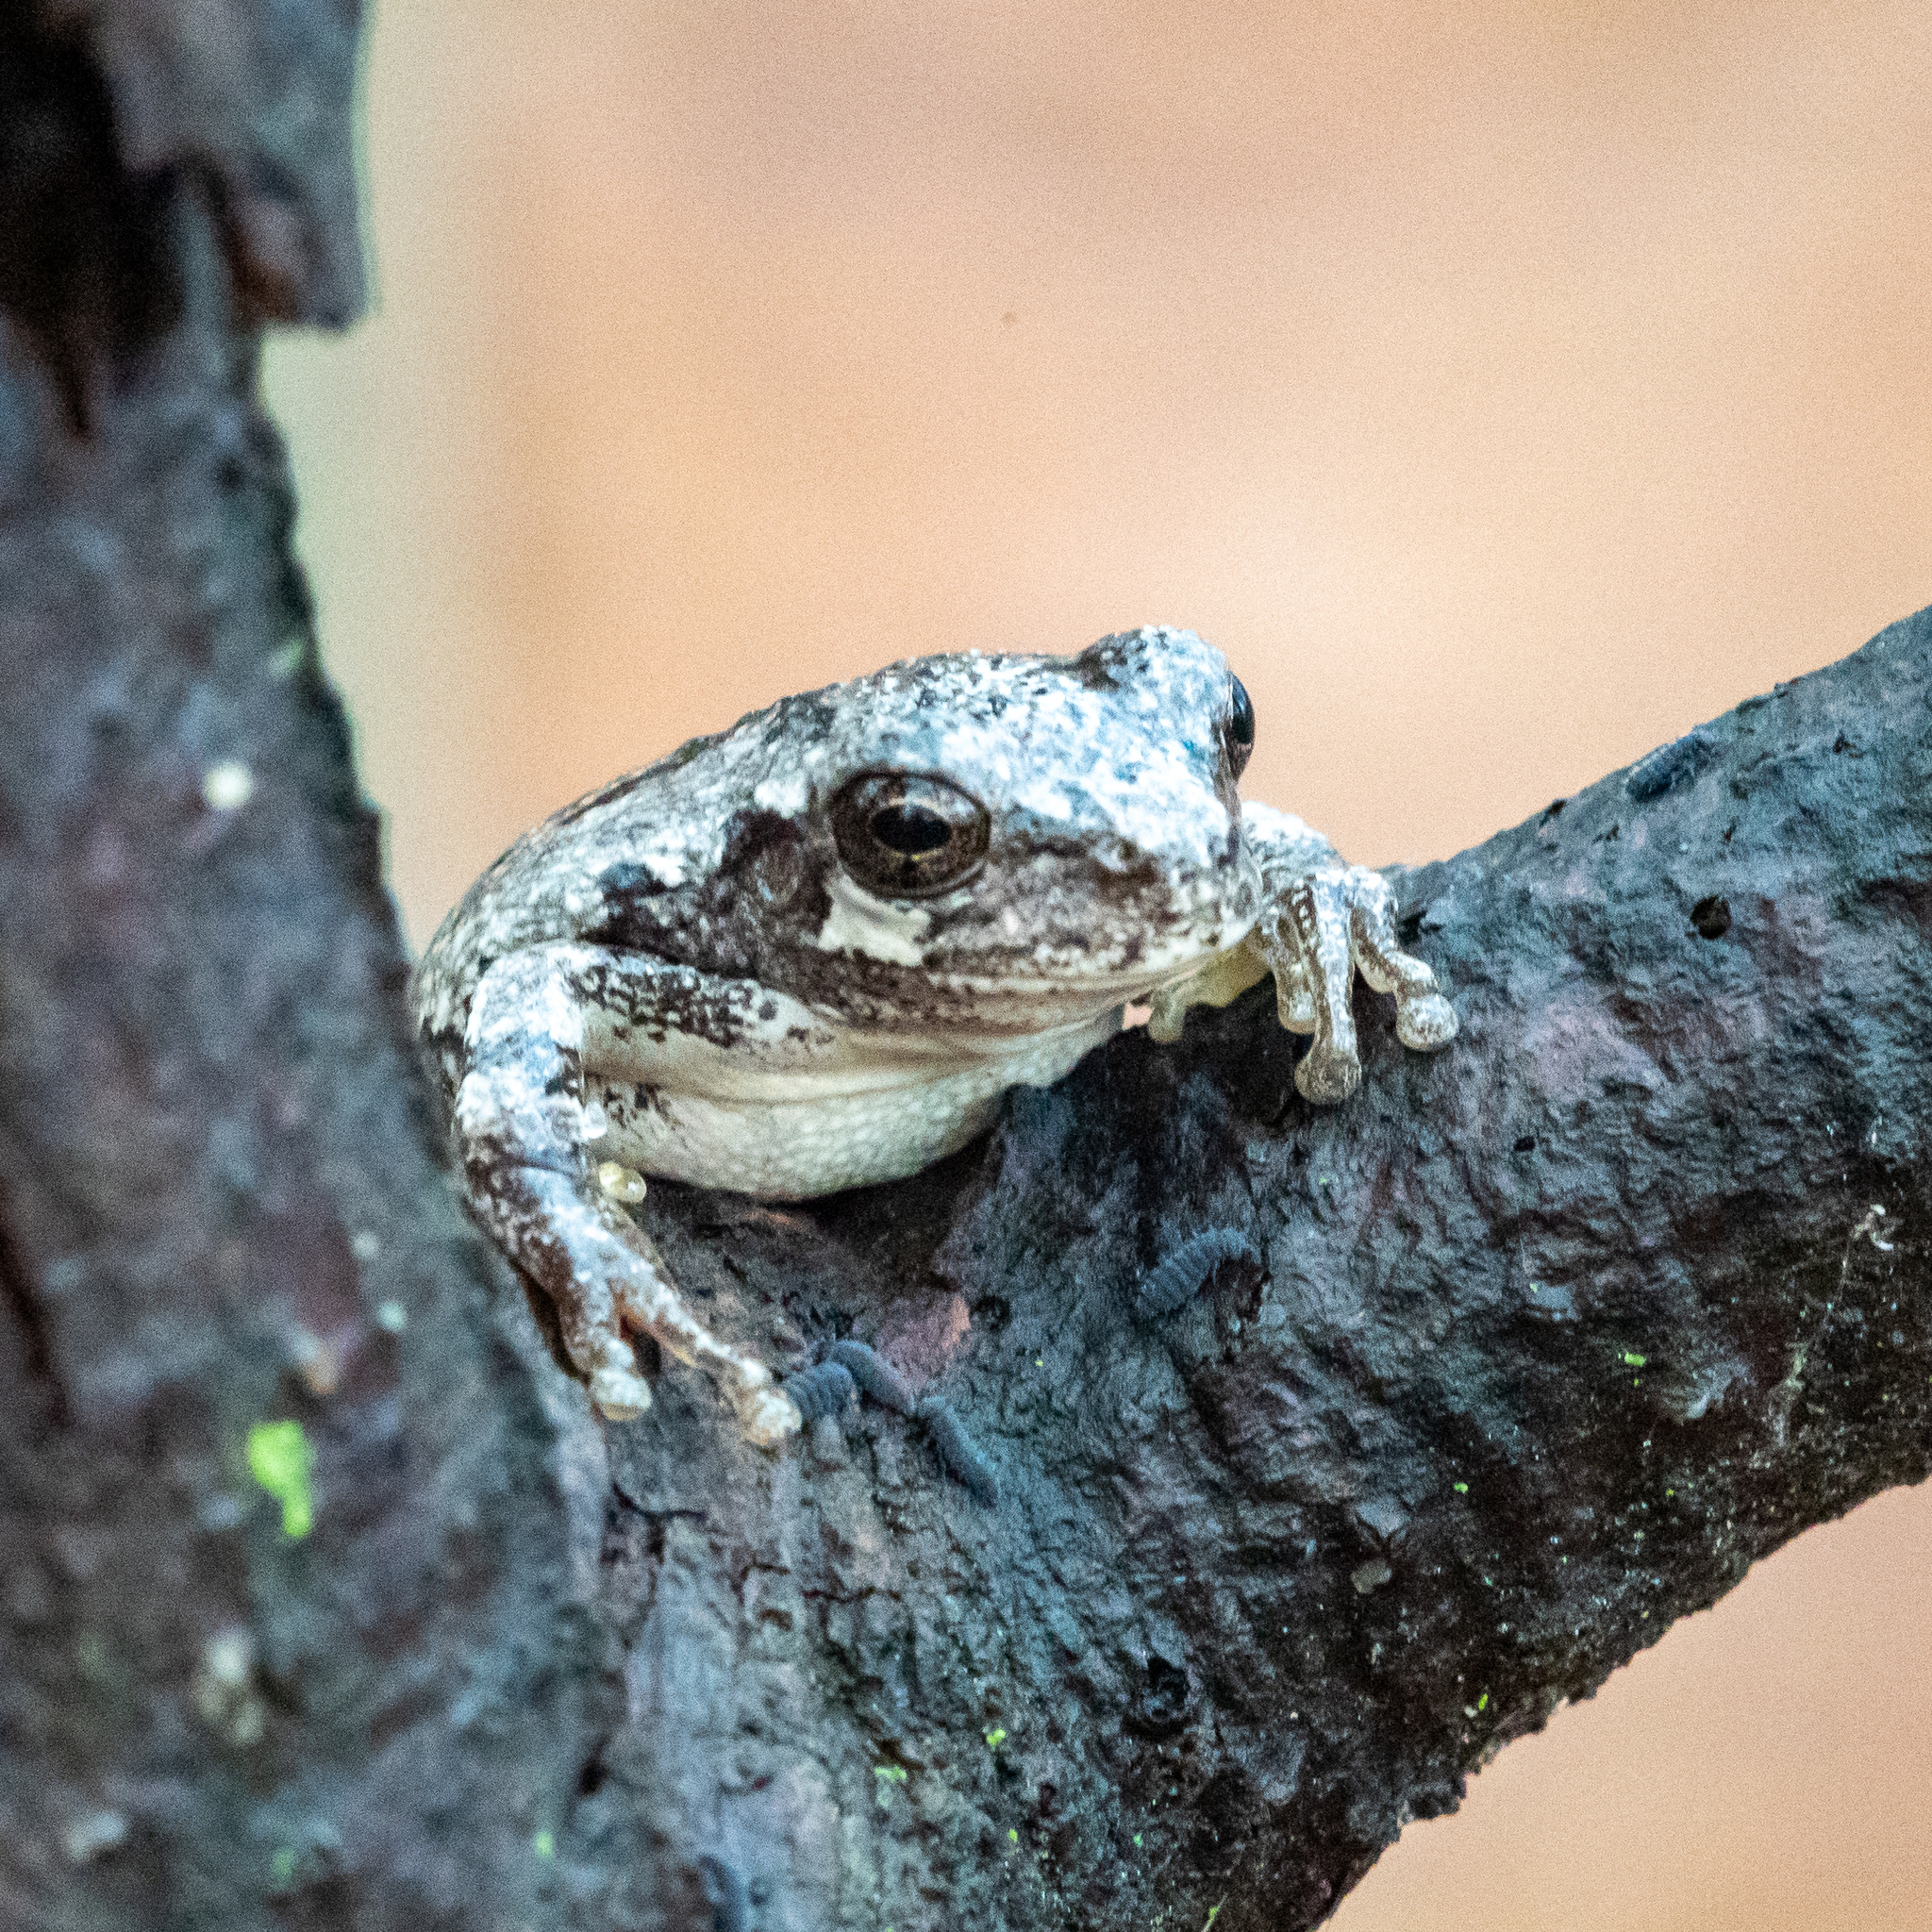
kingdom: Animalia
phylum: Chordata
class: Amphibia
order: Anura
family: Hylidae
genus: Hyla
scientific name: Hyla
